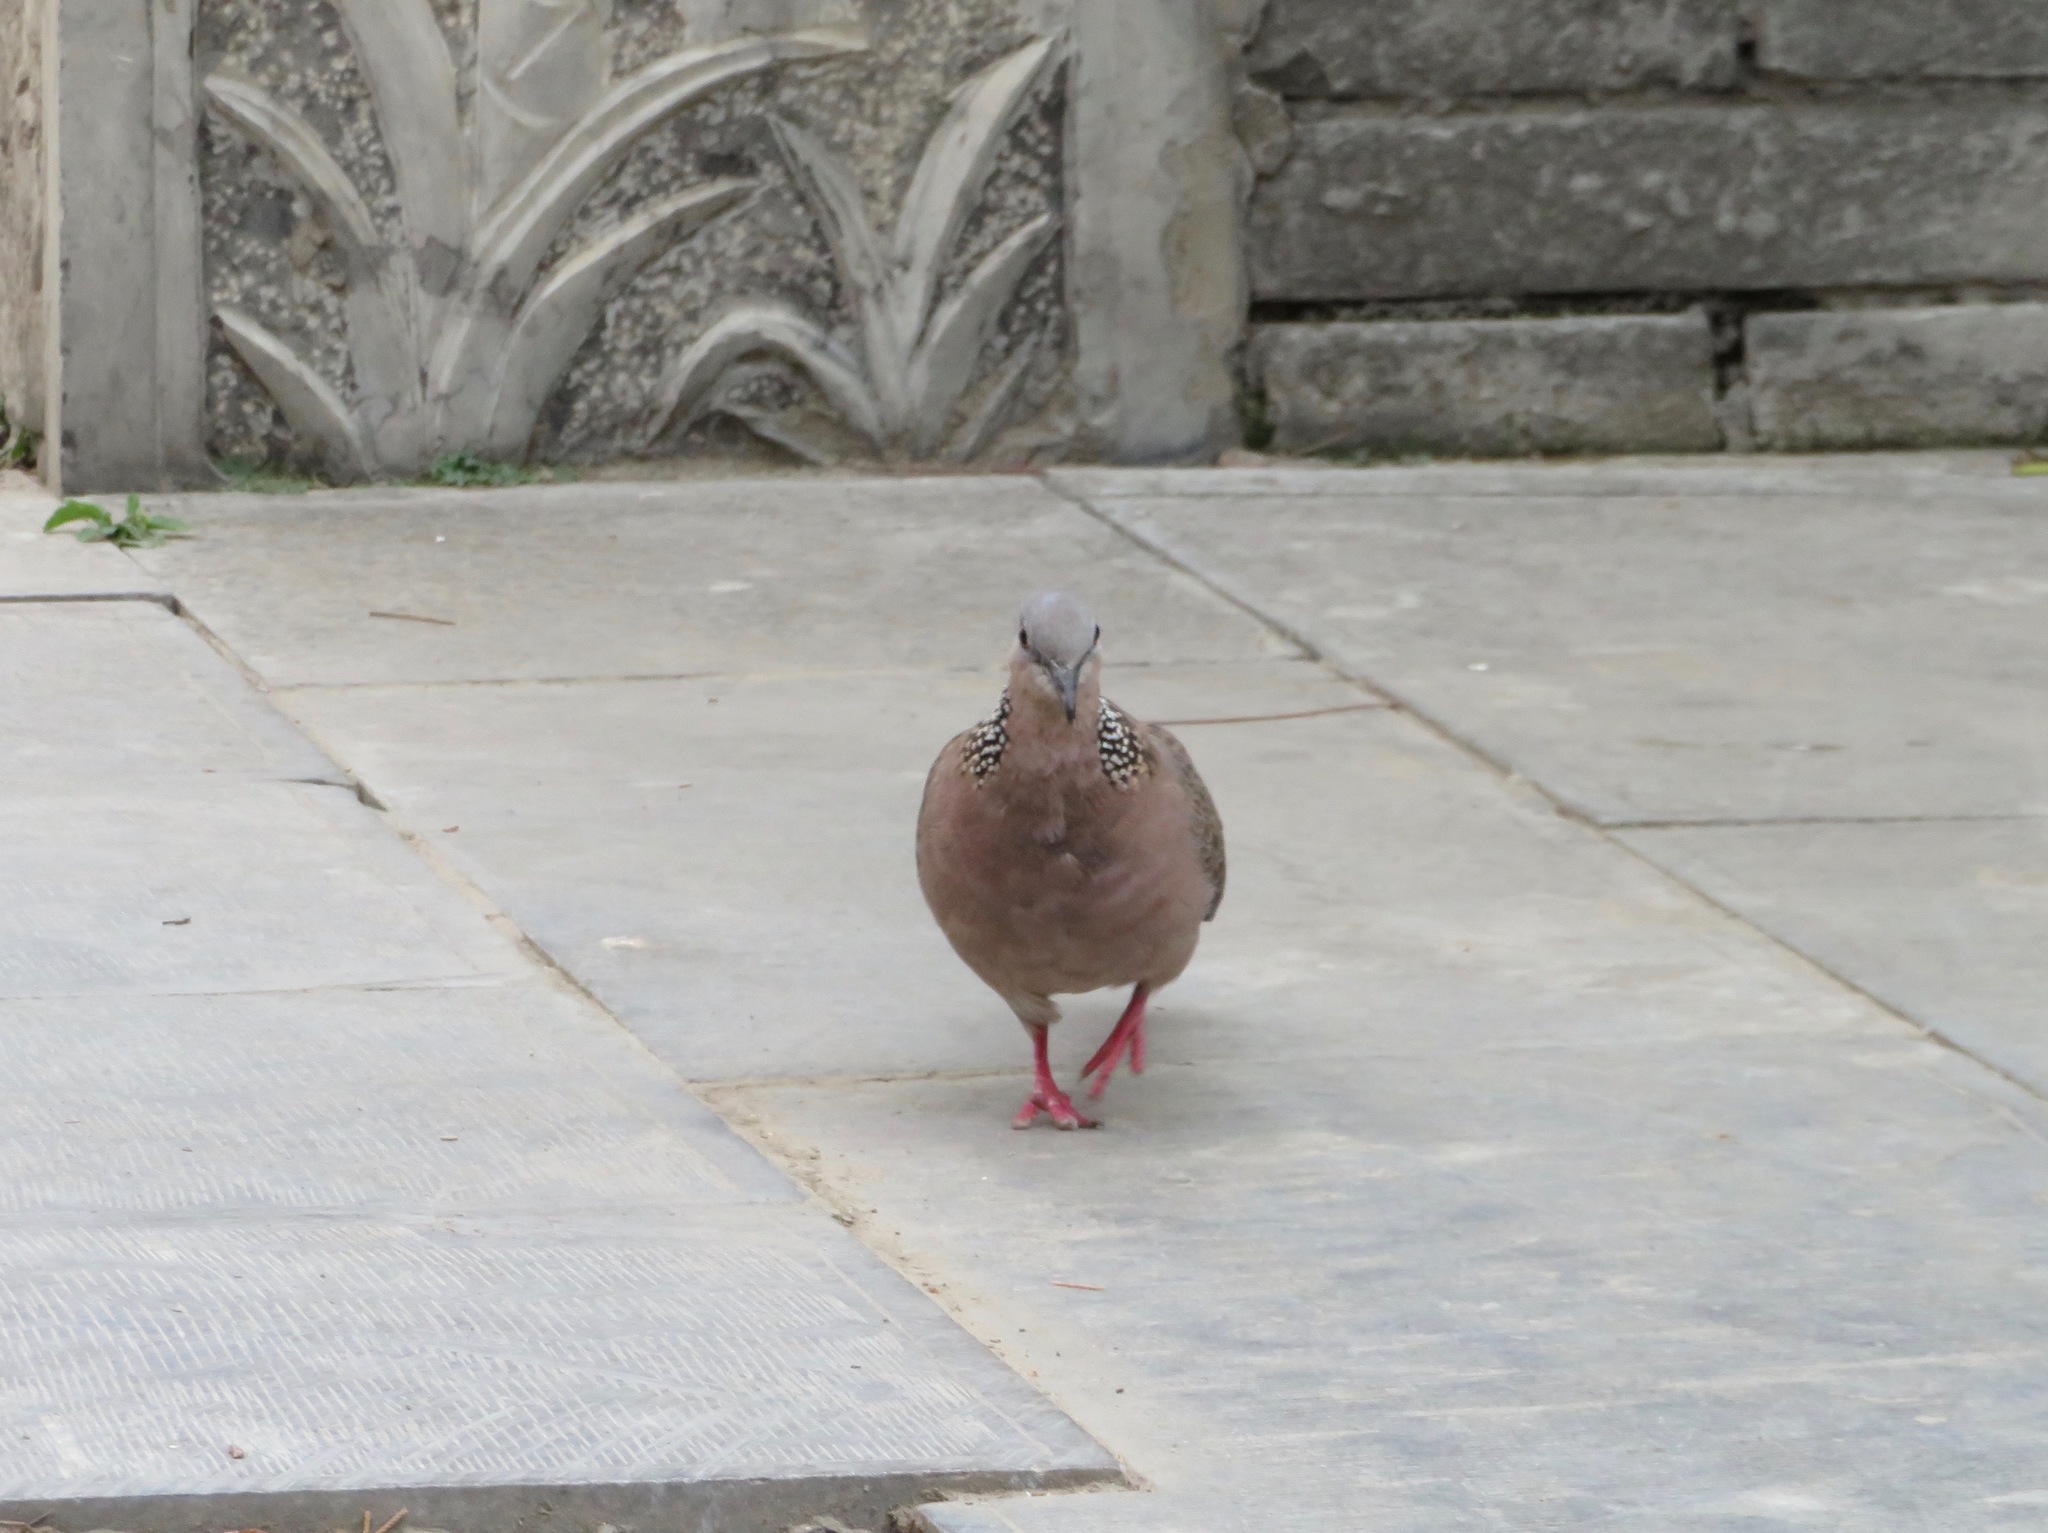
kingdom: Animalia
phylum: Chordata
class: Aves
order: Columbiformes
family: Columbidae
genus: Spilopelia
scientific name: Spilopelia chinensis
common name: Spotted dove
